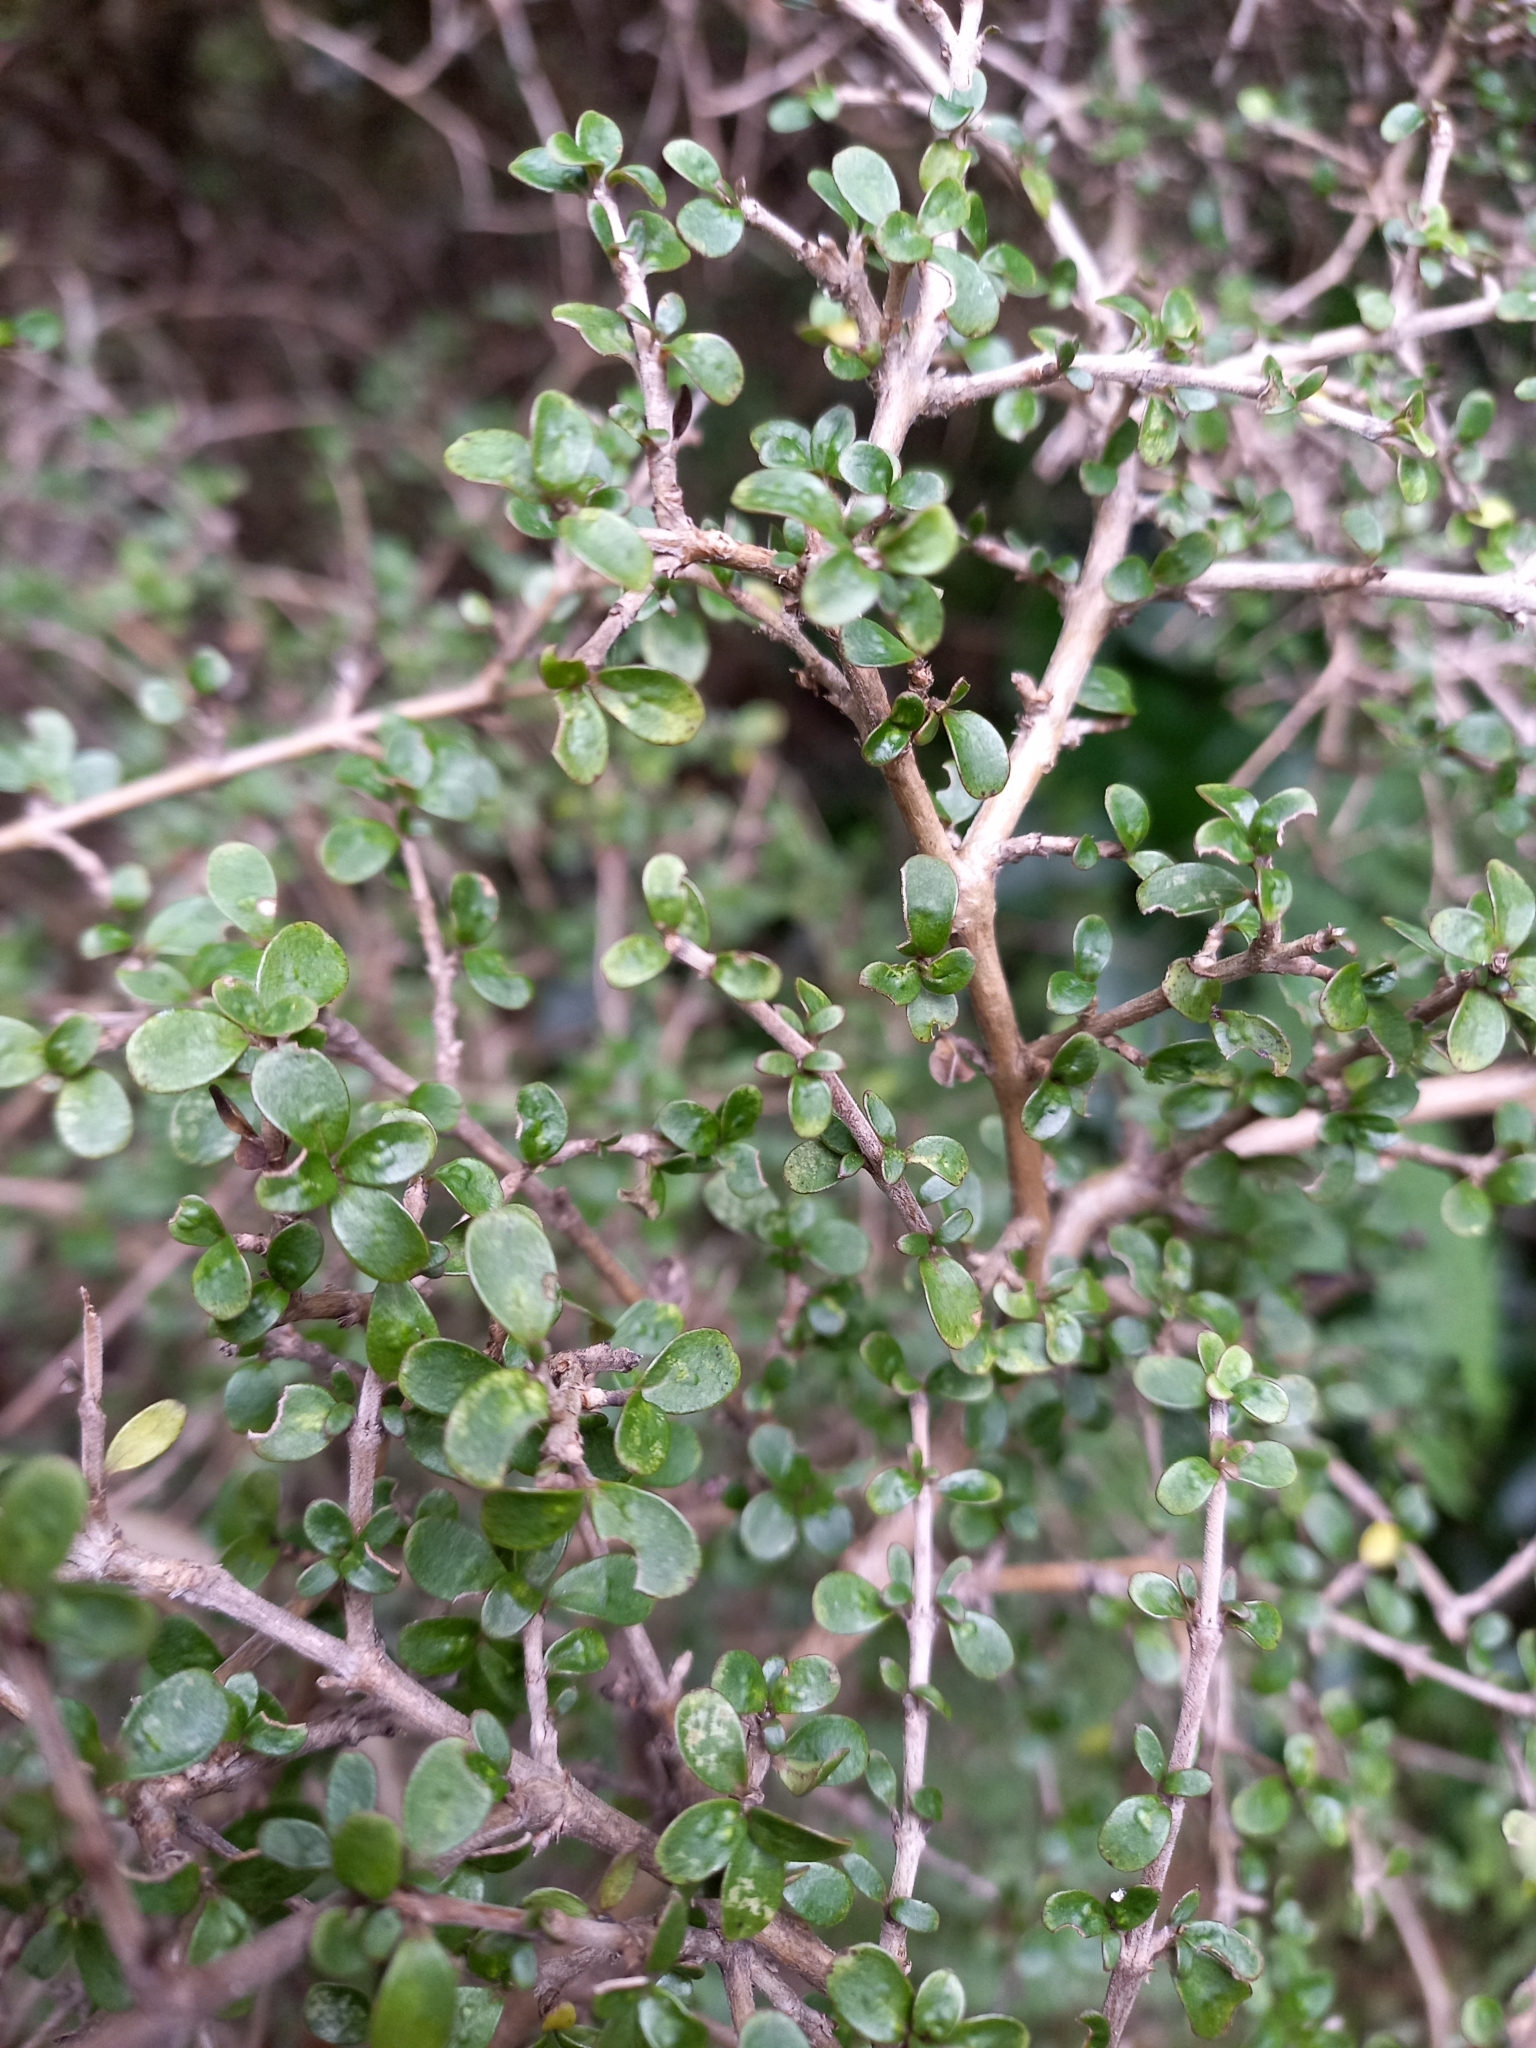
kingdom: Plantae
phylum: Tracheophyta
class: Magnoliopsida
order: Gentianales
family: Rubiaceae
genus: Coprosma
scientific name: Coprosma dumosa
